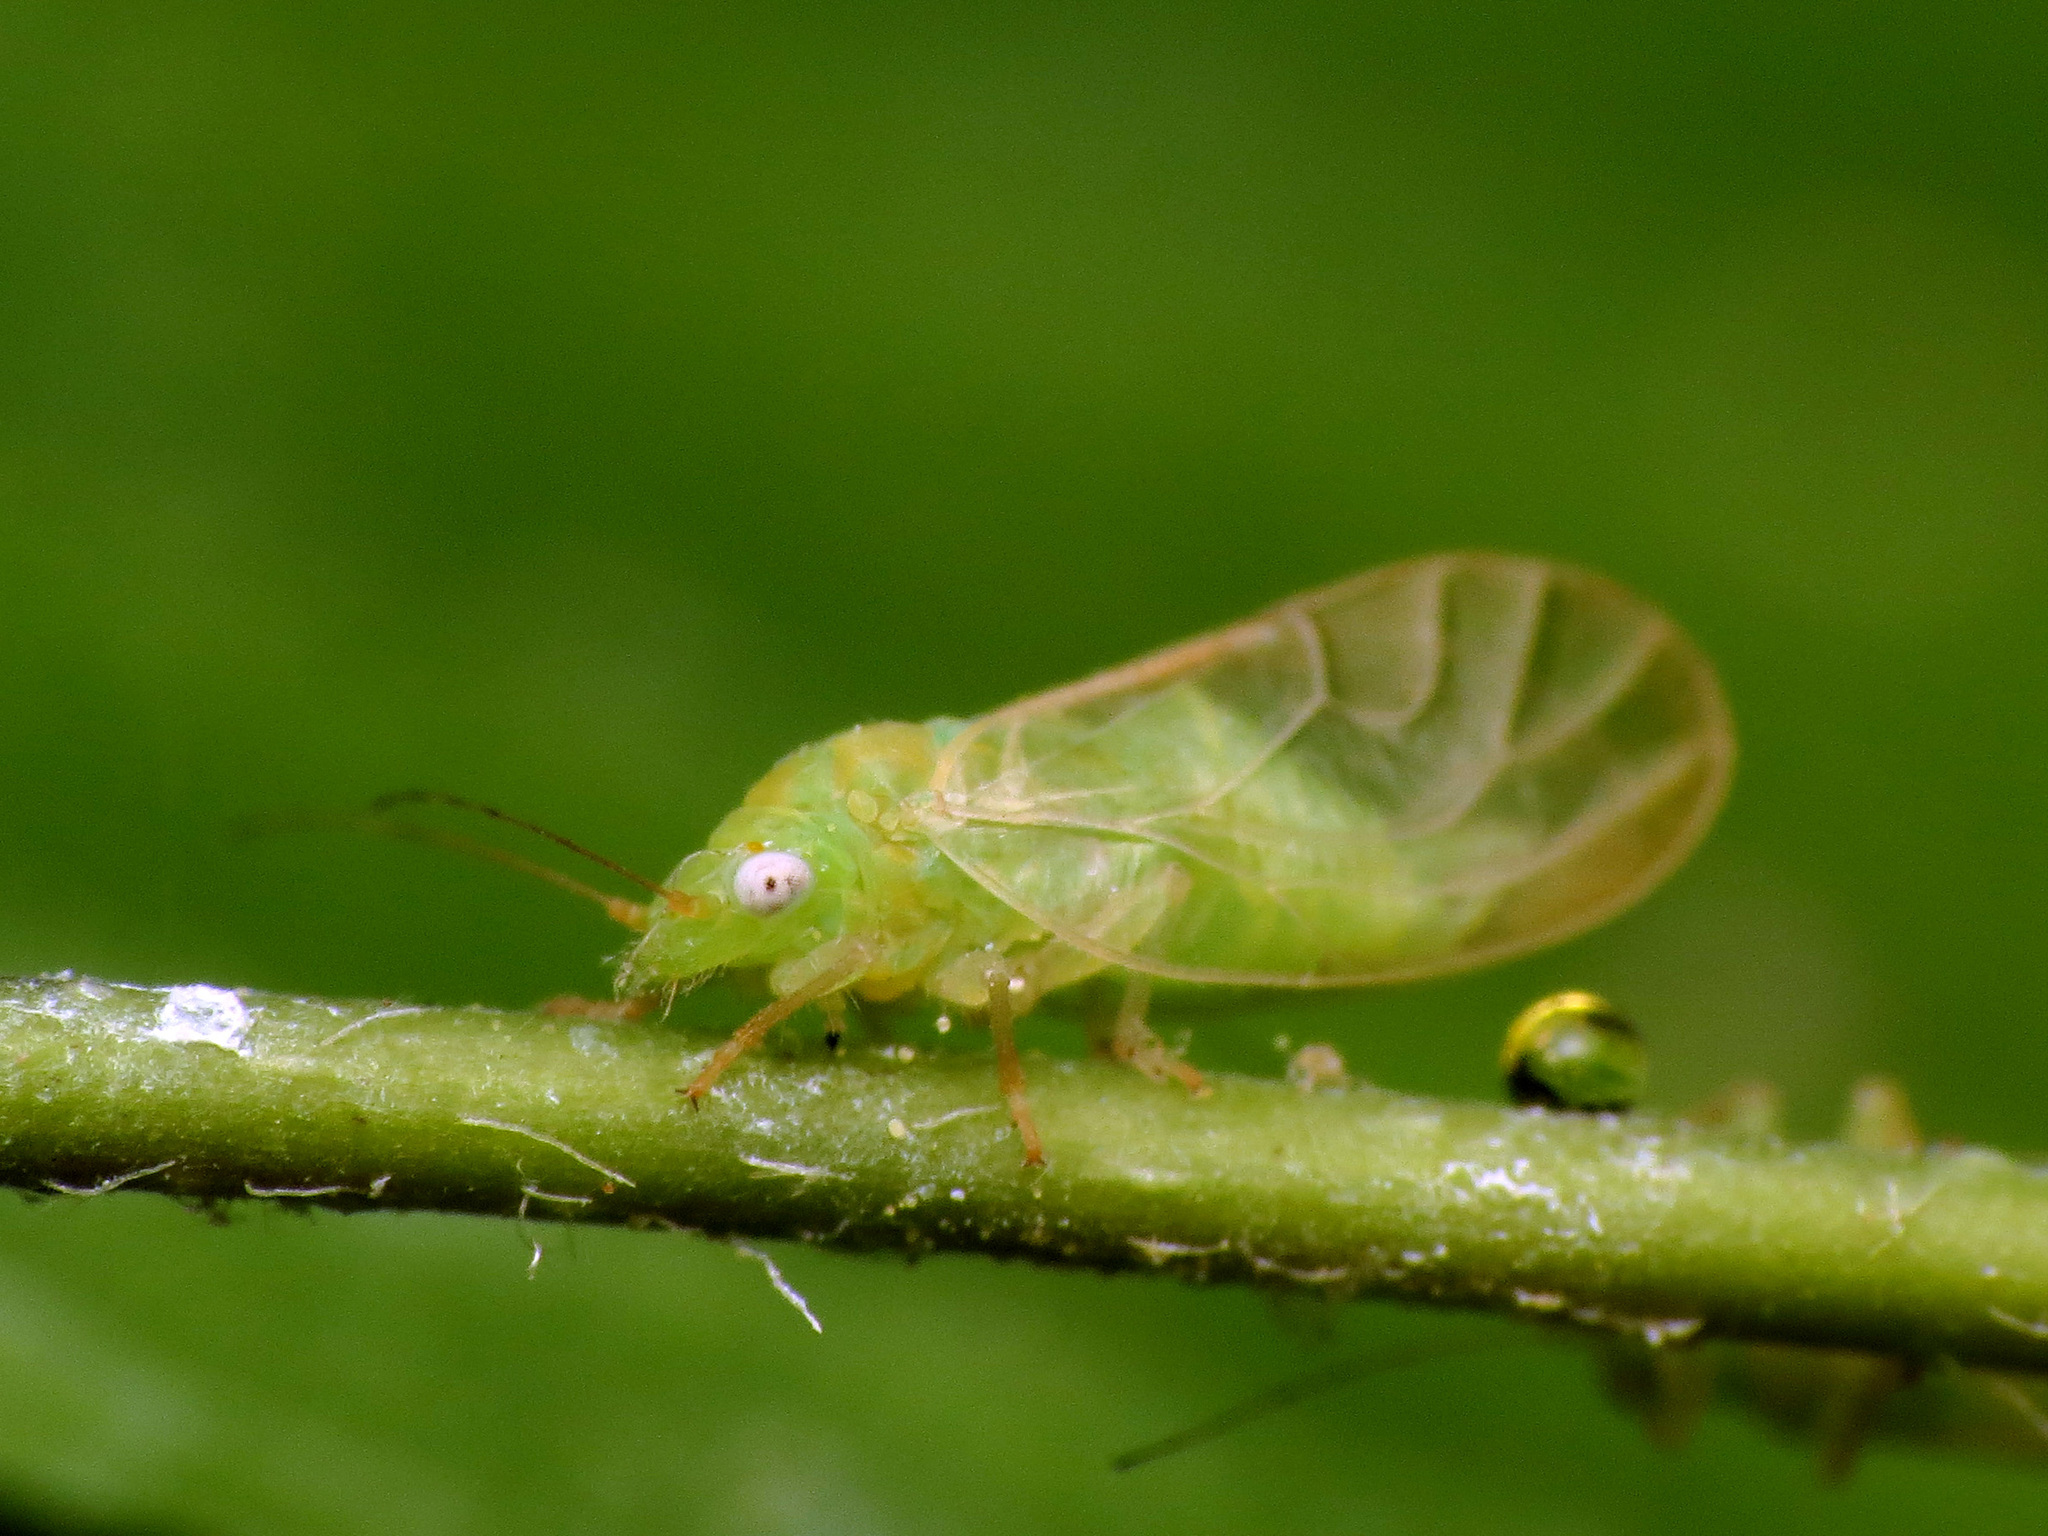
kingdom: Animalia
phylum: Arthropoda
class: Insecta
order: Hemiptera
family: Psyllidae
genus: Psylla
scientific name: Psylla carpinicola
